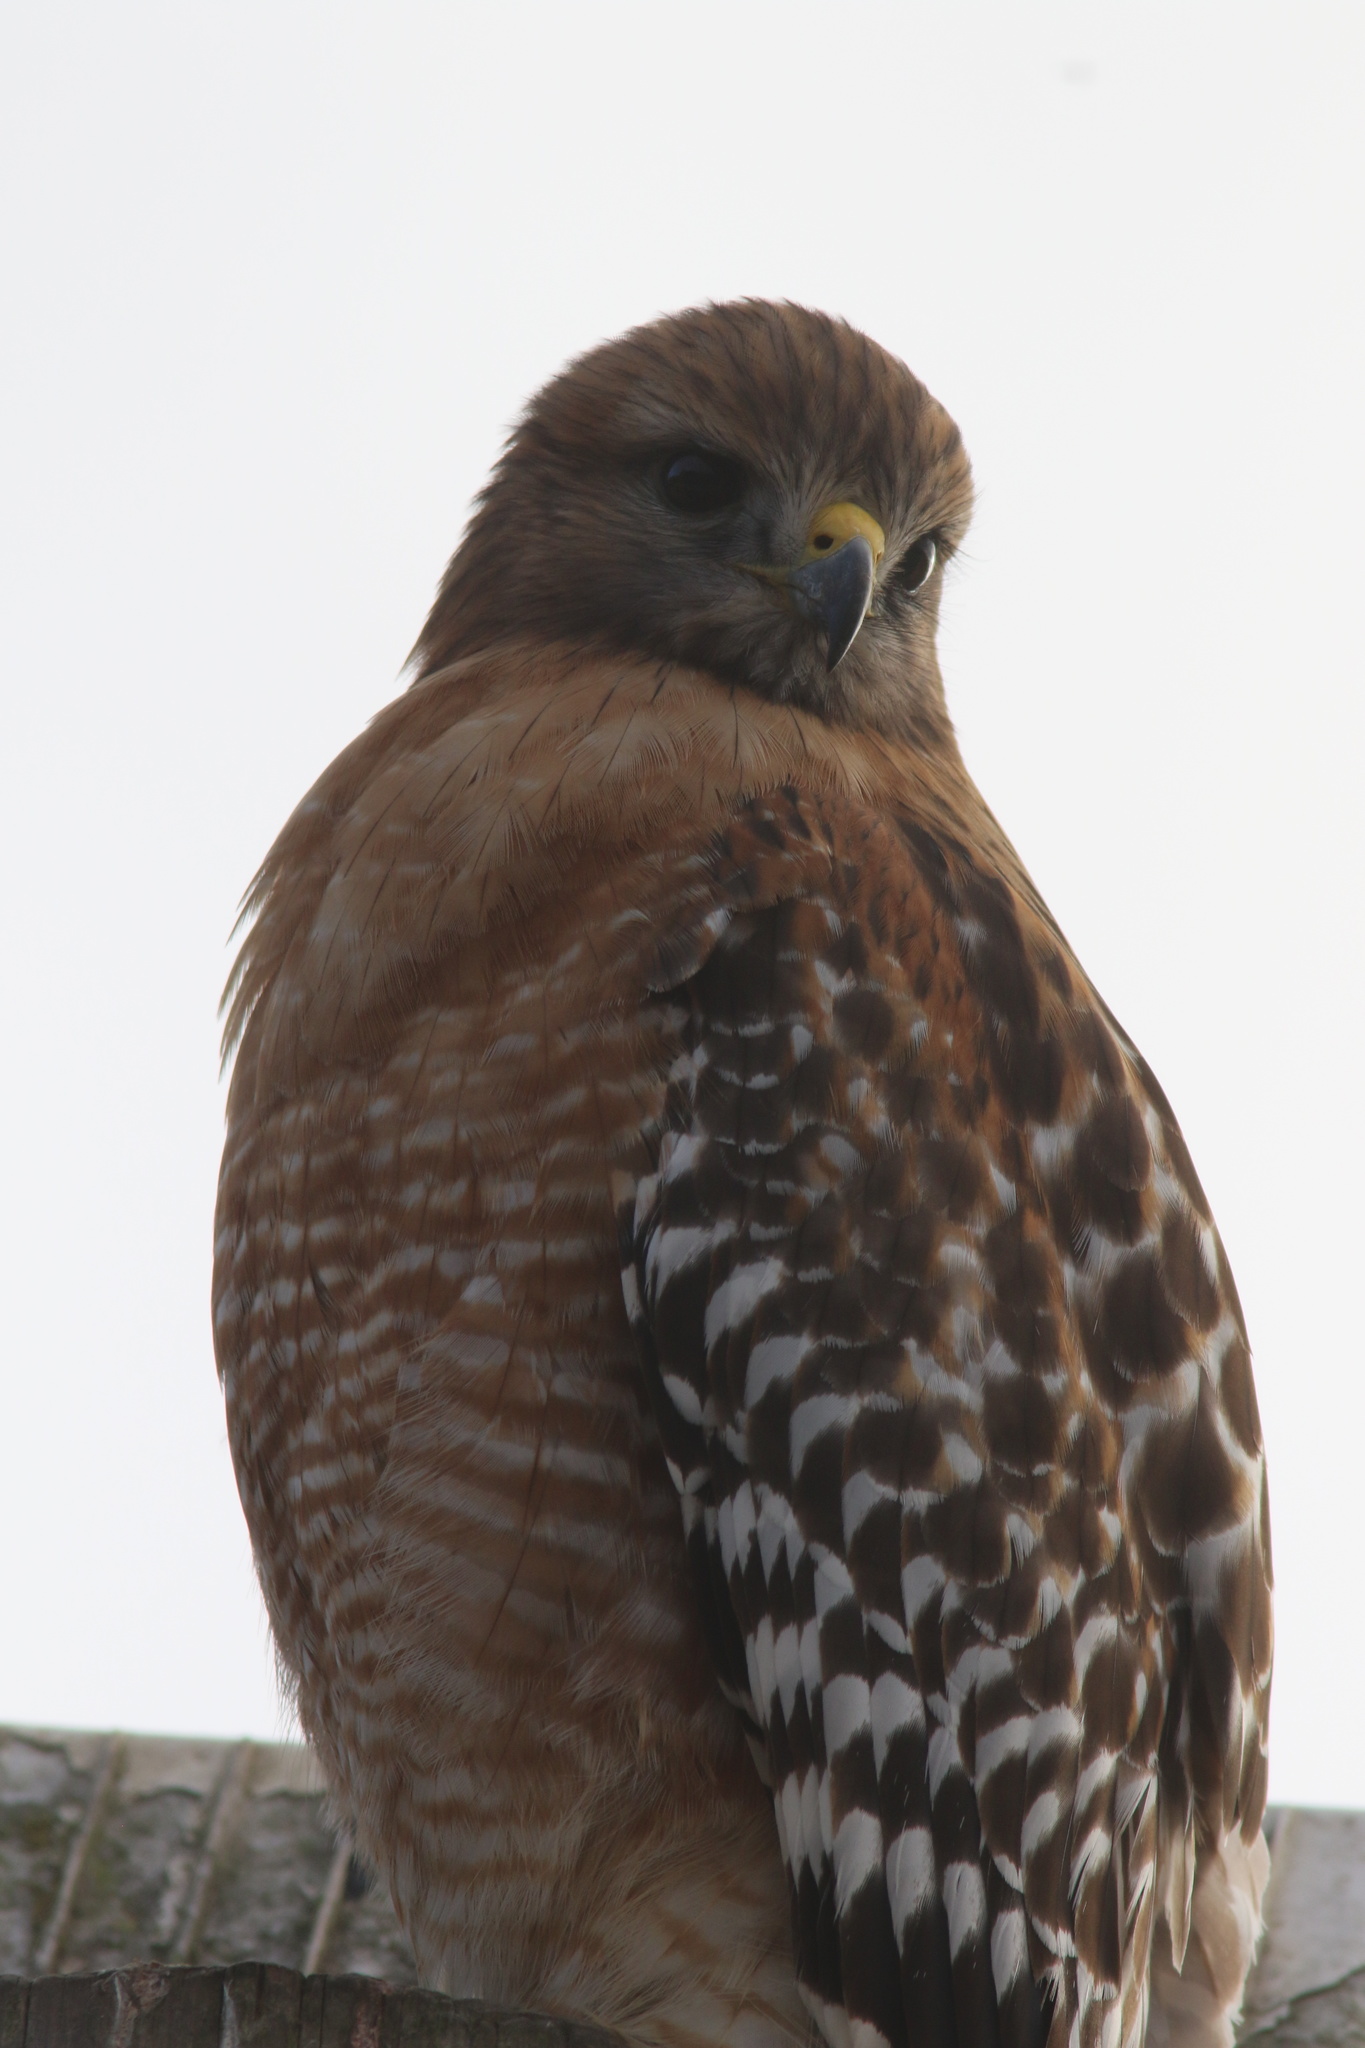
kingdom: Animalia
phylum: Chordata
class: Aves
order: Accipitriformes
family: Accipitridae
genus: Buteo
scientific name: Buteo lineatus
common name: Red-shouldered hawk
